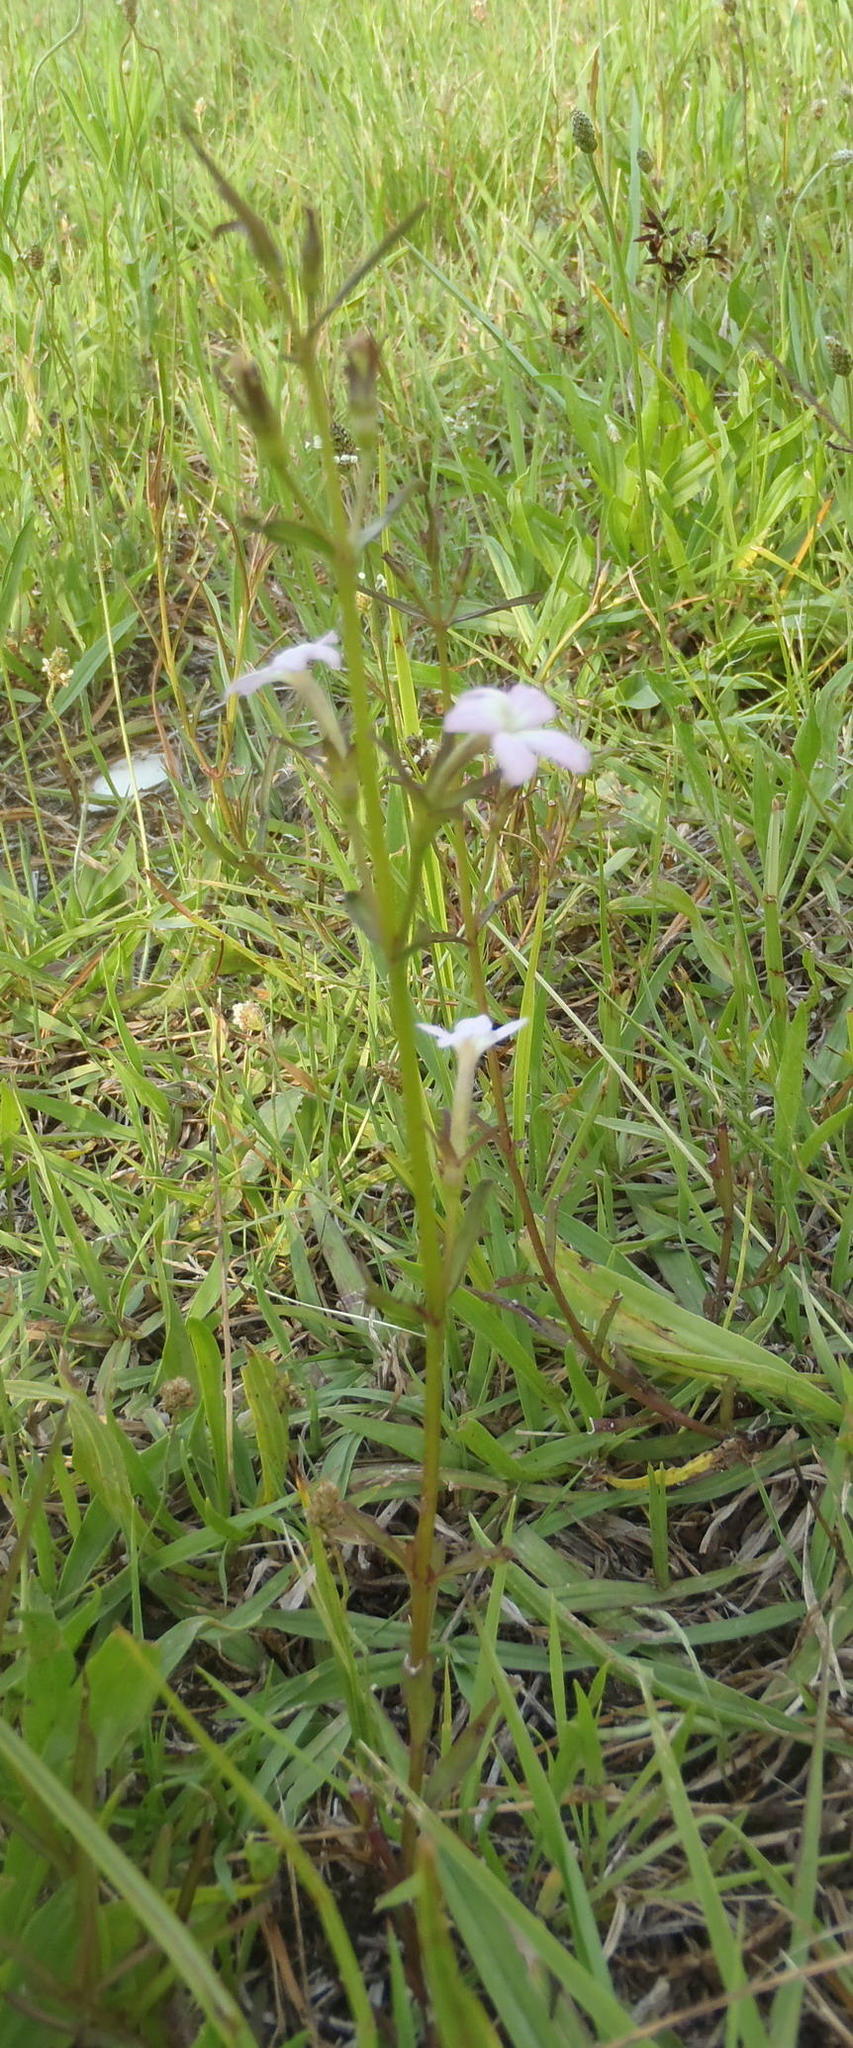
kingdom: Plantae
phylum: Tracheophyta
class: Magnoliopsida
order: Lamiales
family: Orobanchaceae
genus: Cycnium
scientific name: Cycnium tubulosum
